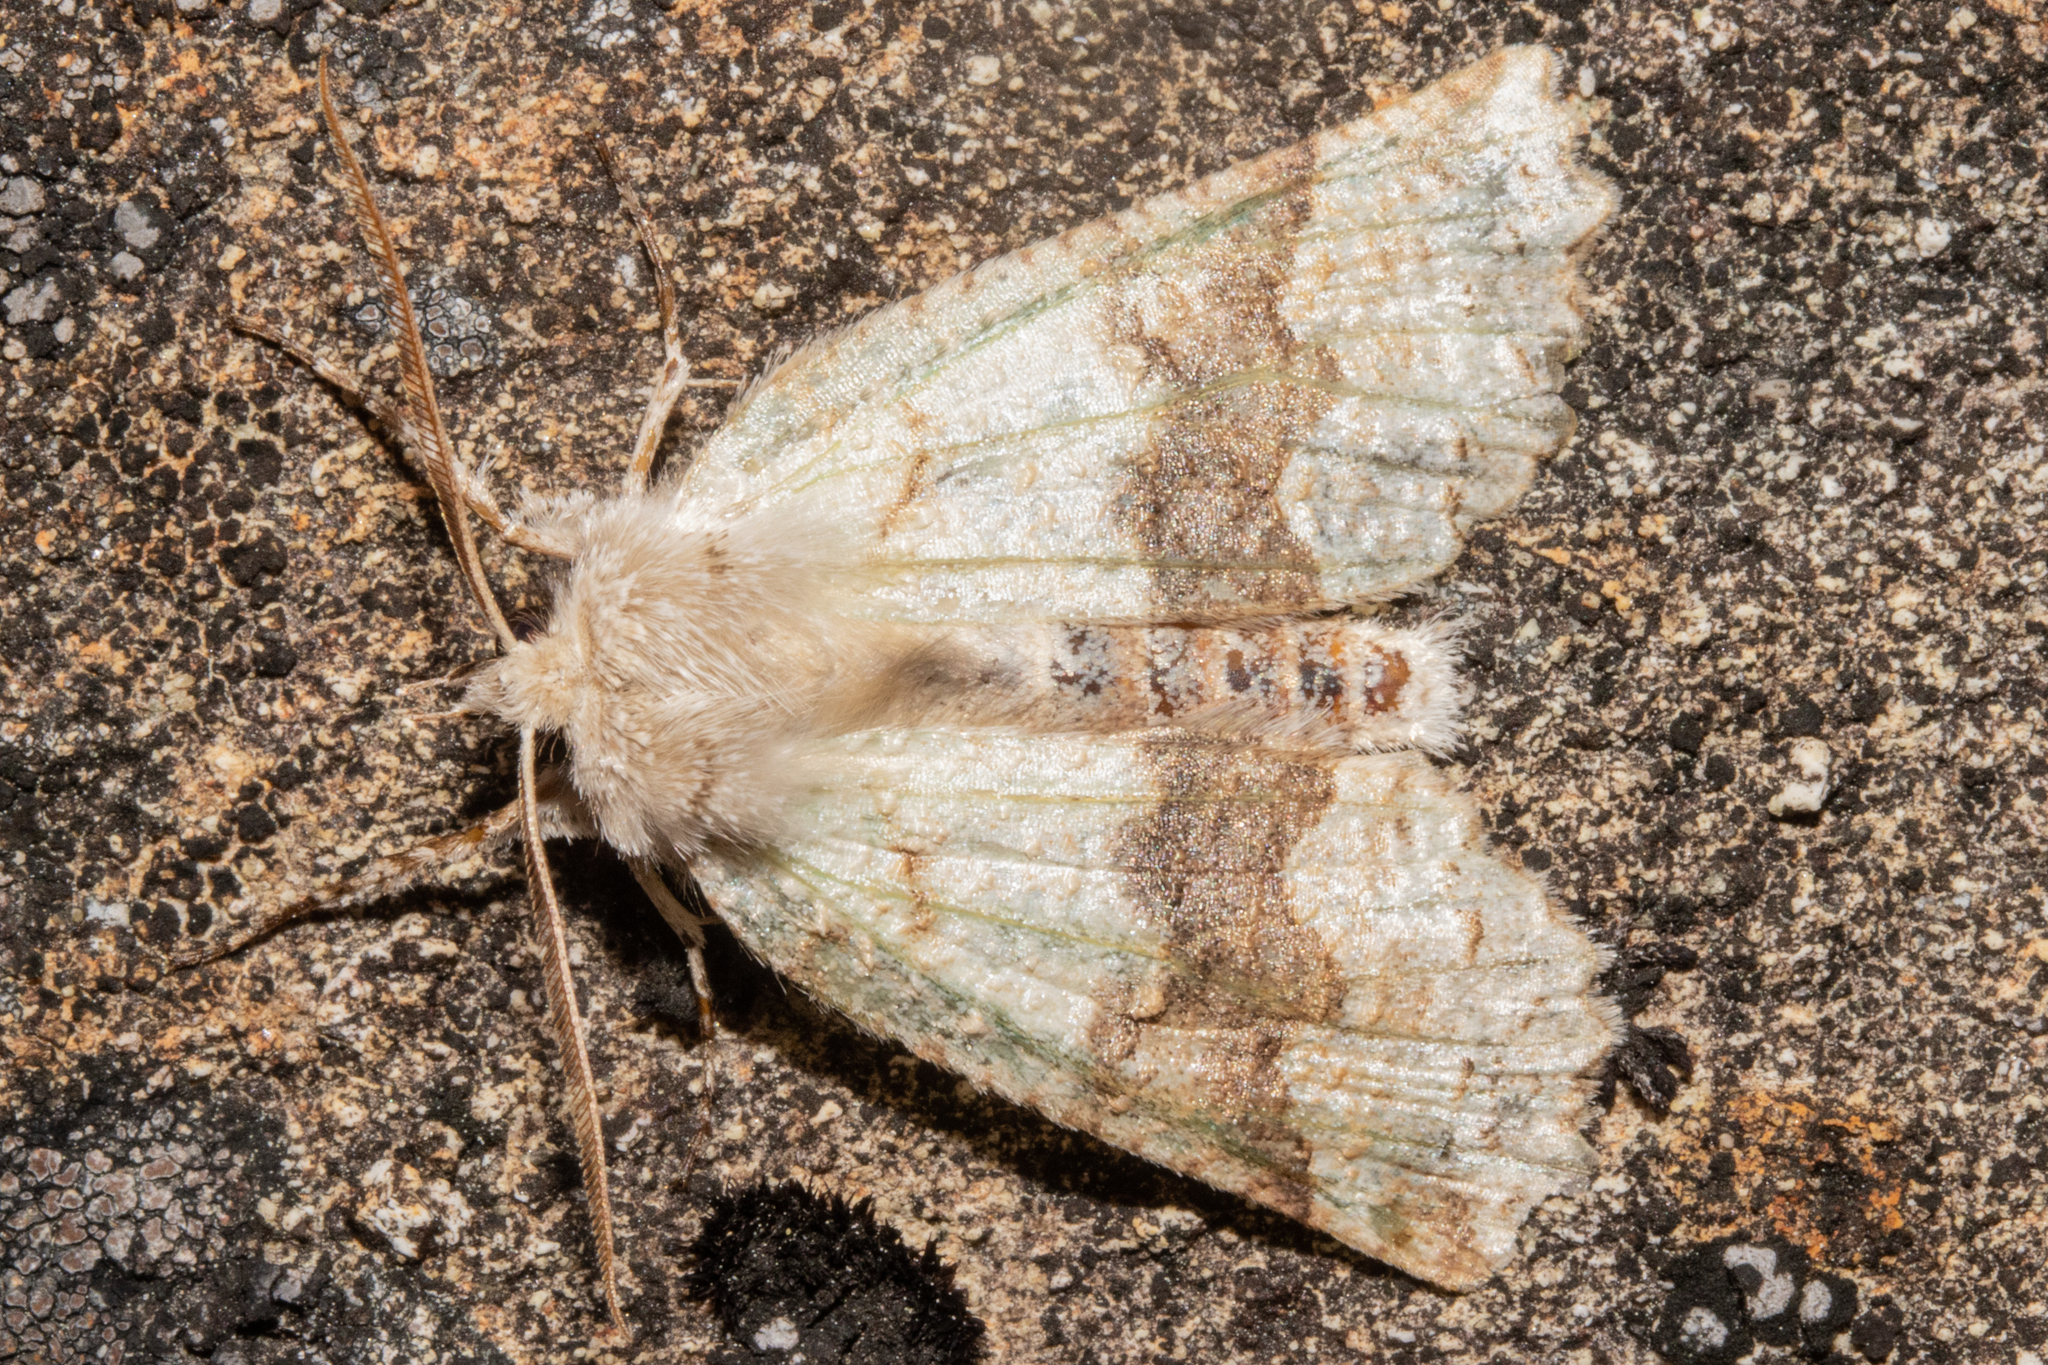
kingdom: Animalia
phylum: Arthropoda
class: Insecta
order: Lepidoptera
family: Geometridae
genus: Declana
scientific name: Declana floccosa
